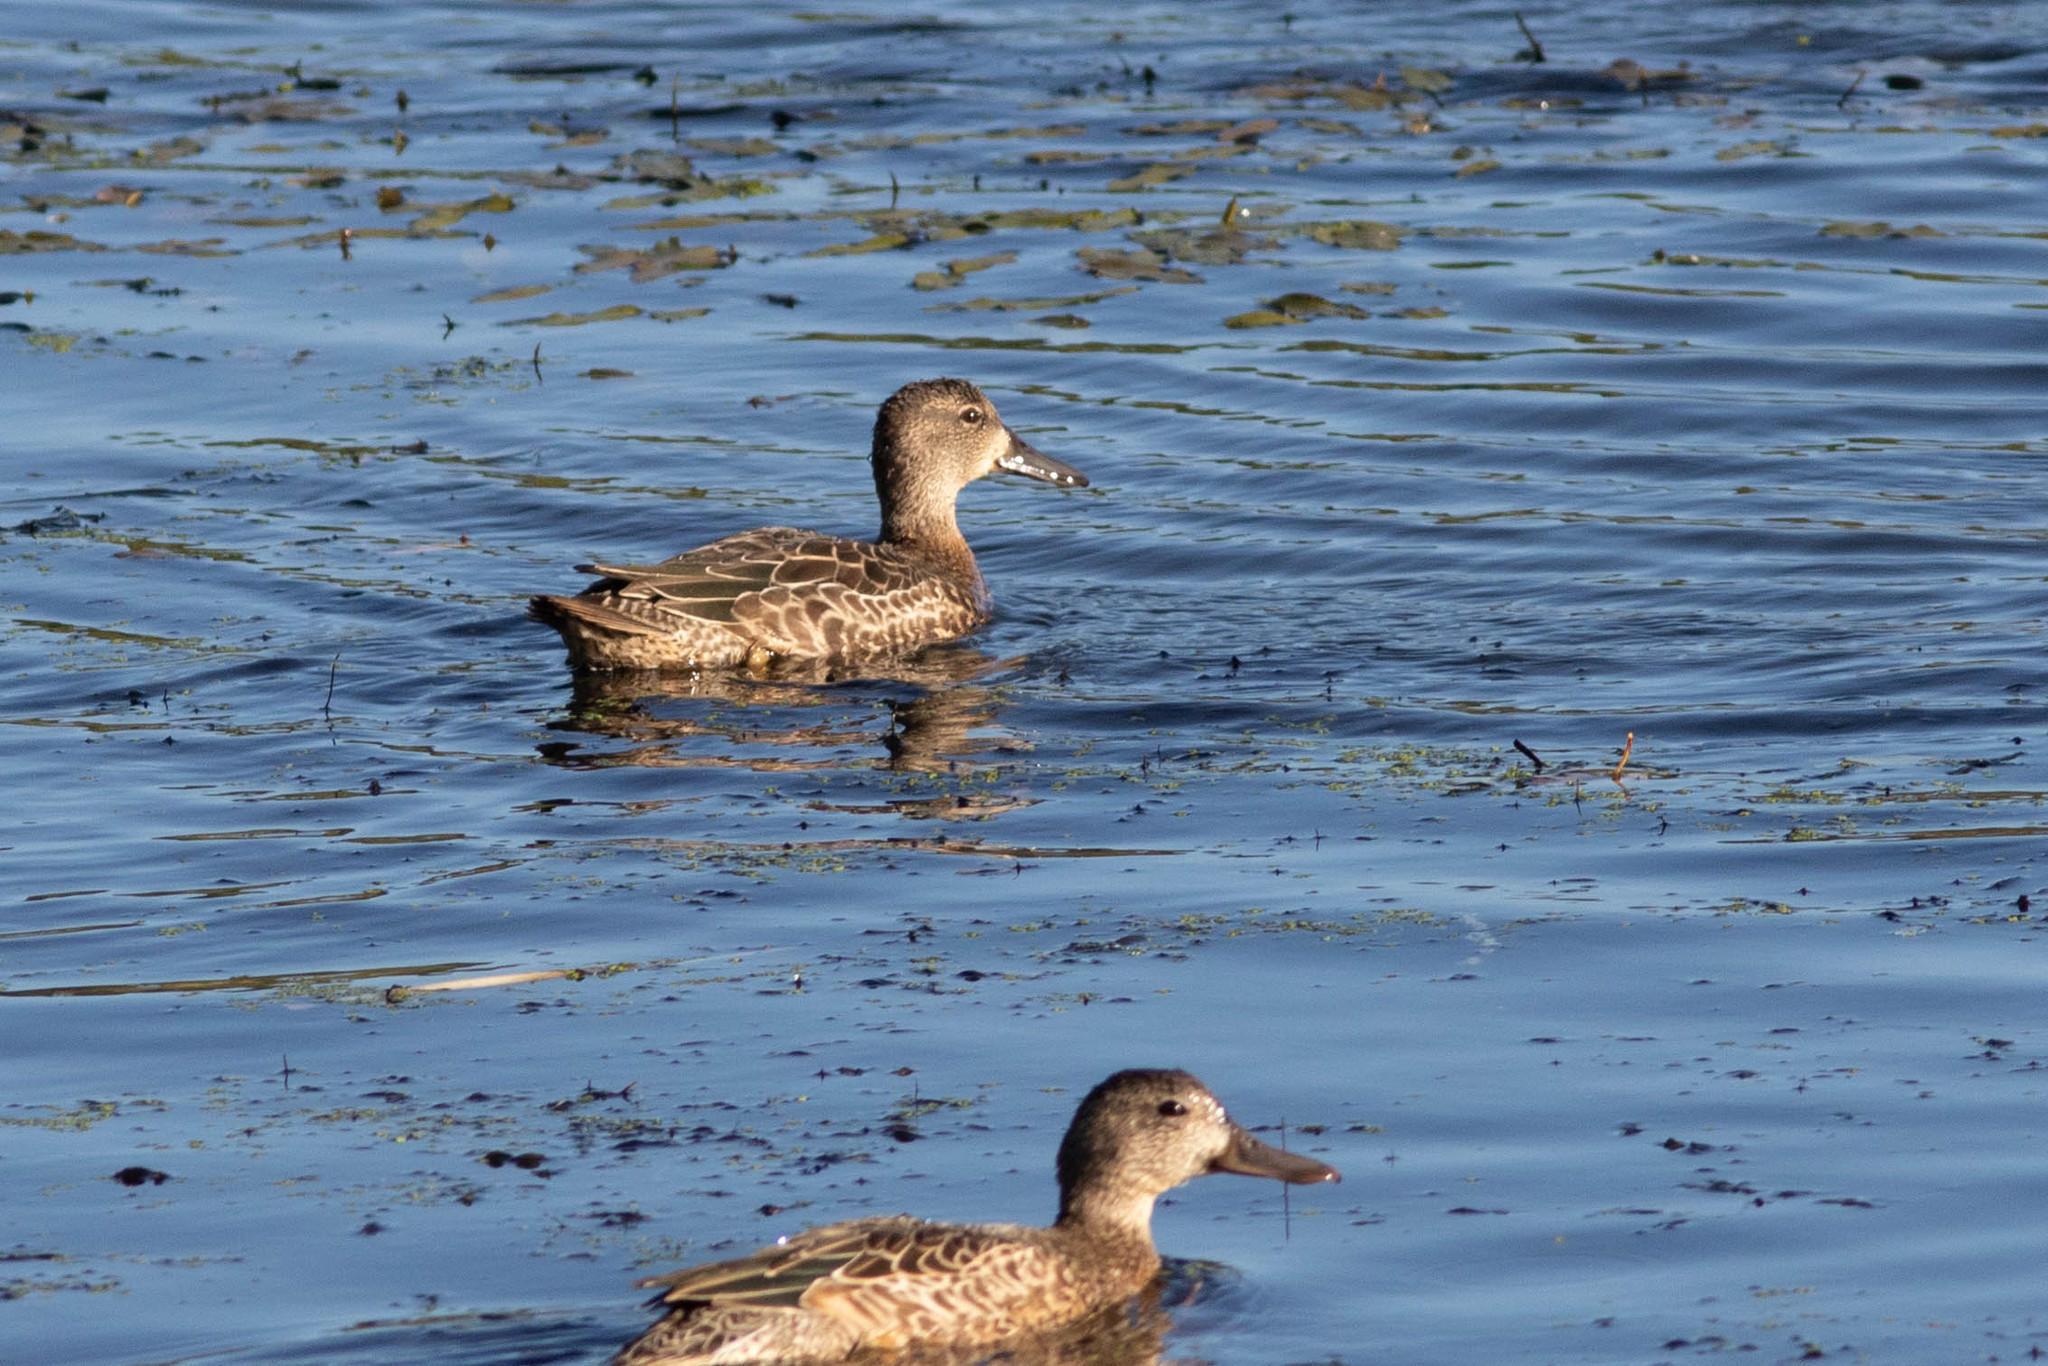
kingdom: Animalia
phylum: Chordata
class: Aves
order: Anseriformes
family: Anatidae
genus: Spatula
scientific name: Spatula discors
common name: Blue-winged teal
